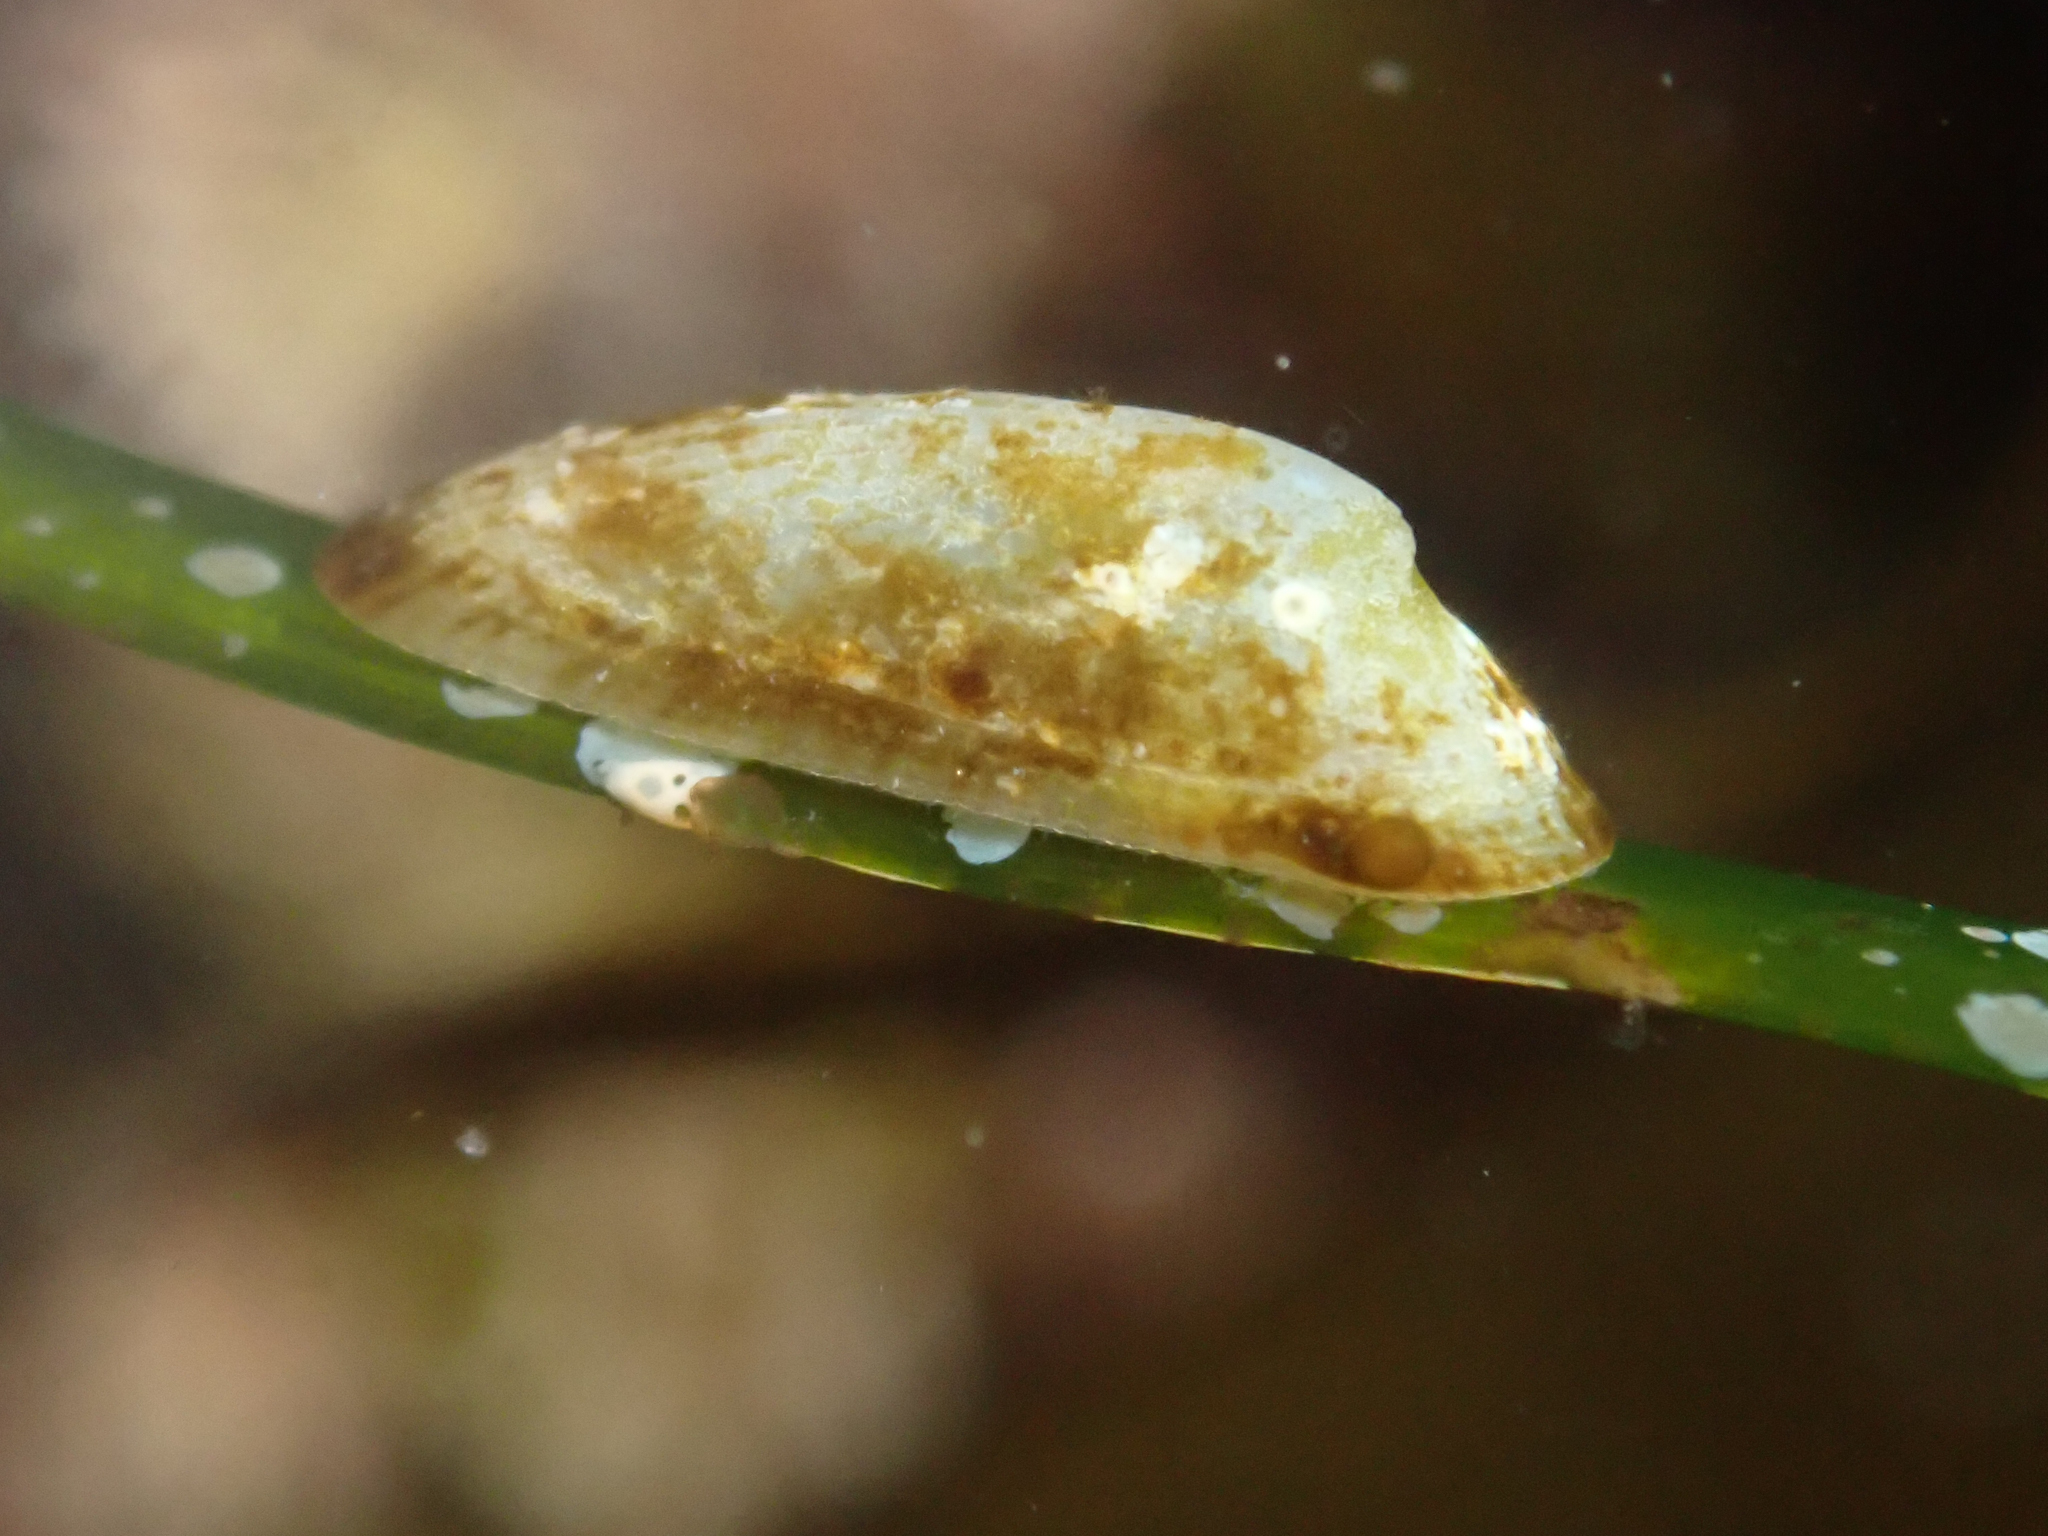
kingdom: Animalia
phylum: Mollusca
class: Gastropoda
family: Lottiidae
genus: Tectura
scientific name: Tectura paleacea
